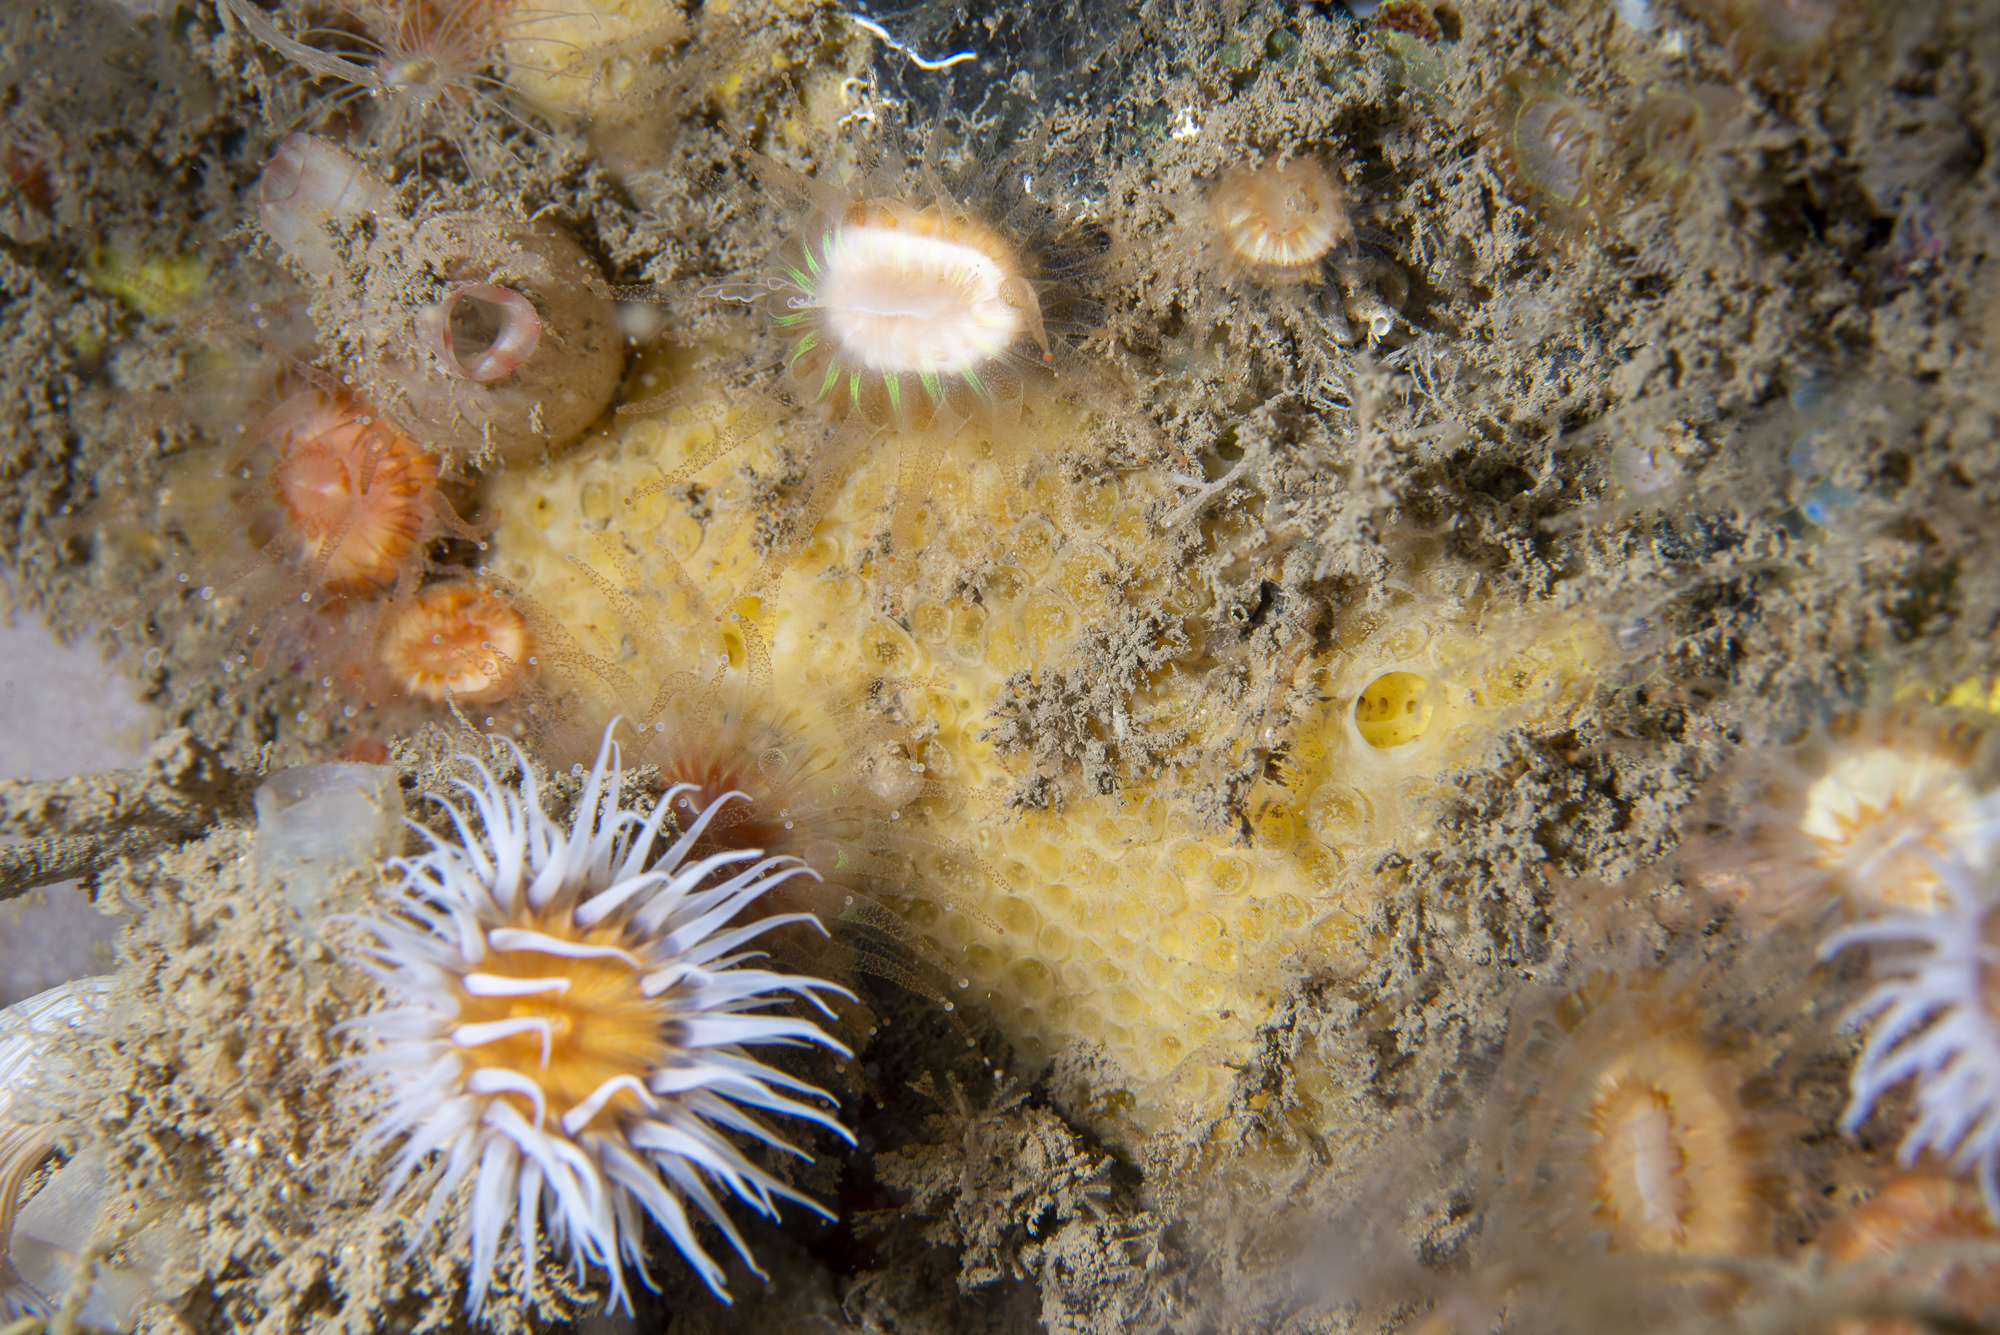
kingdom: Animalia
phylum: Porifera
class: Demospongiae
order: Poecilosclerida
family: Coelosphaeridae
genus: Lissodendoryx
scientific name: Lissodendoryx jenjonesae
